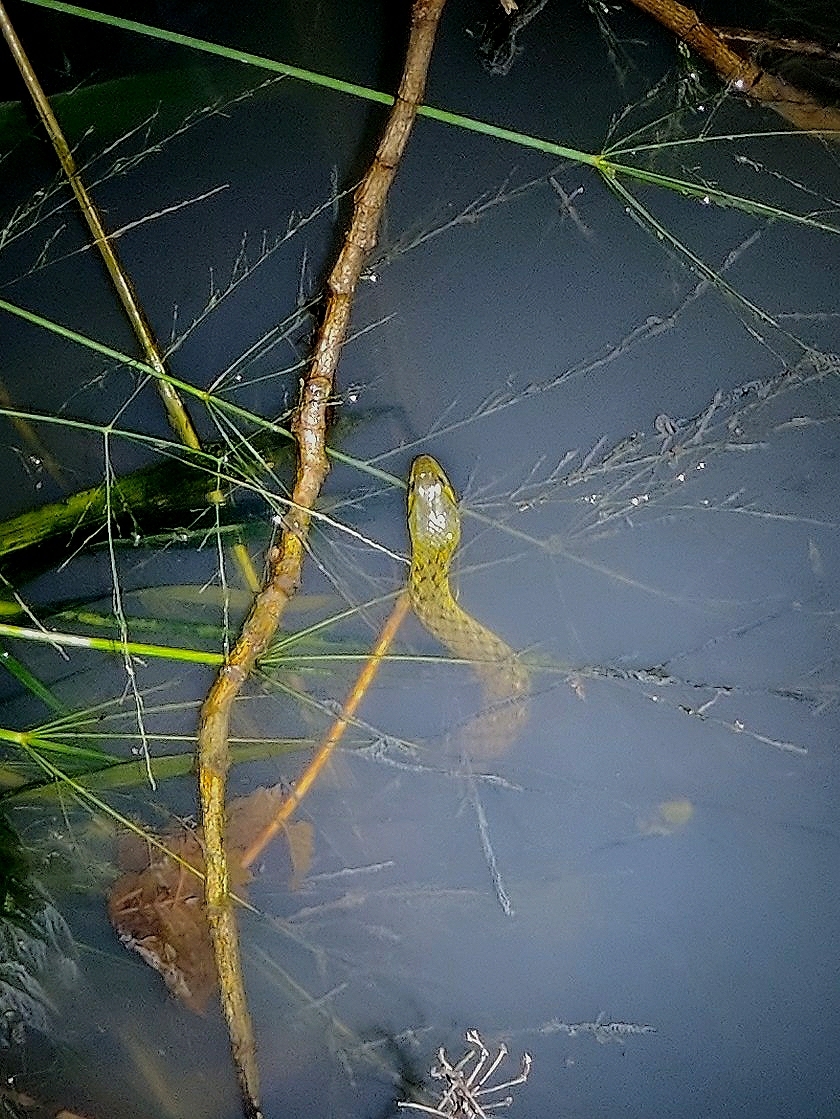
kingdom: Animalia
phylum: Chordata
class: Squamata
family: Colubridae
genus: Fowlea
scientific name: Fowlea piscator
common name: Asiatic water snake
